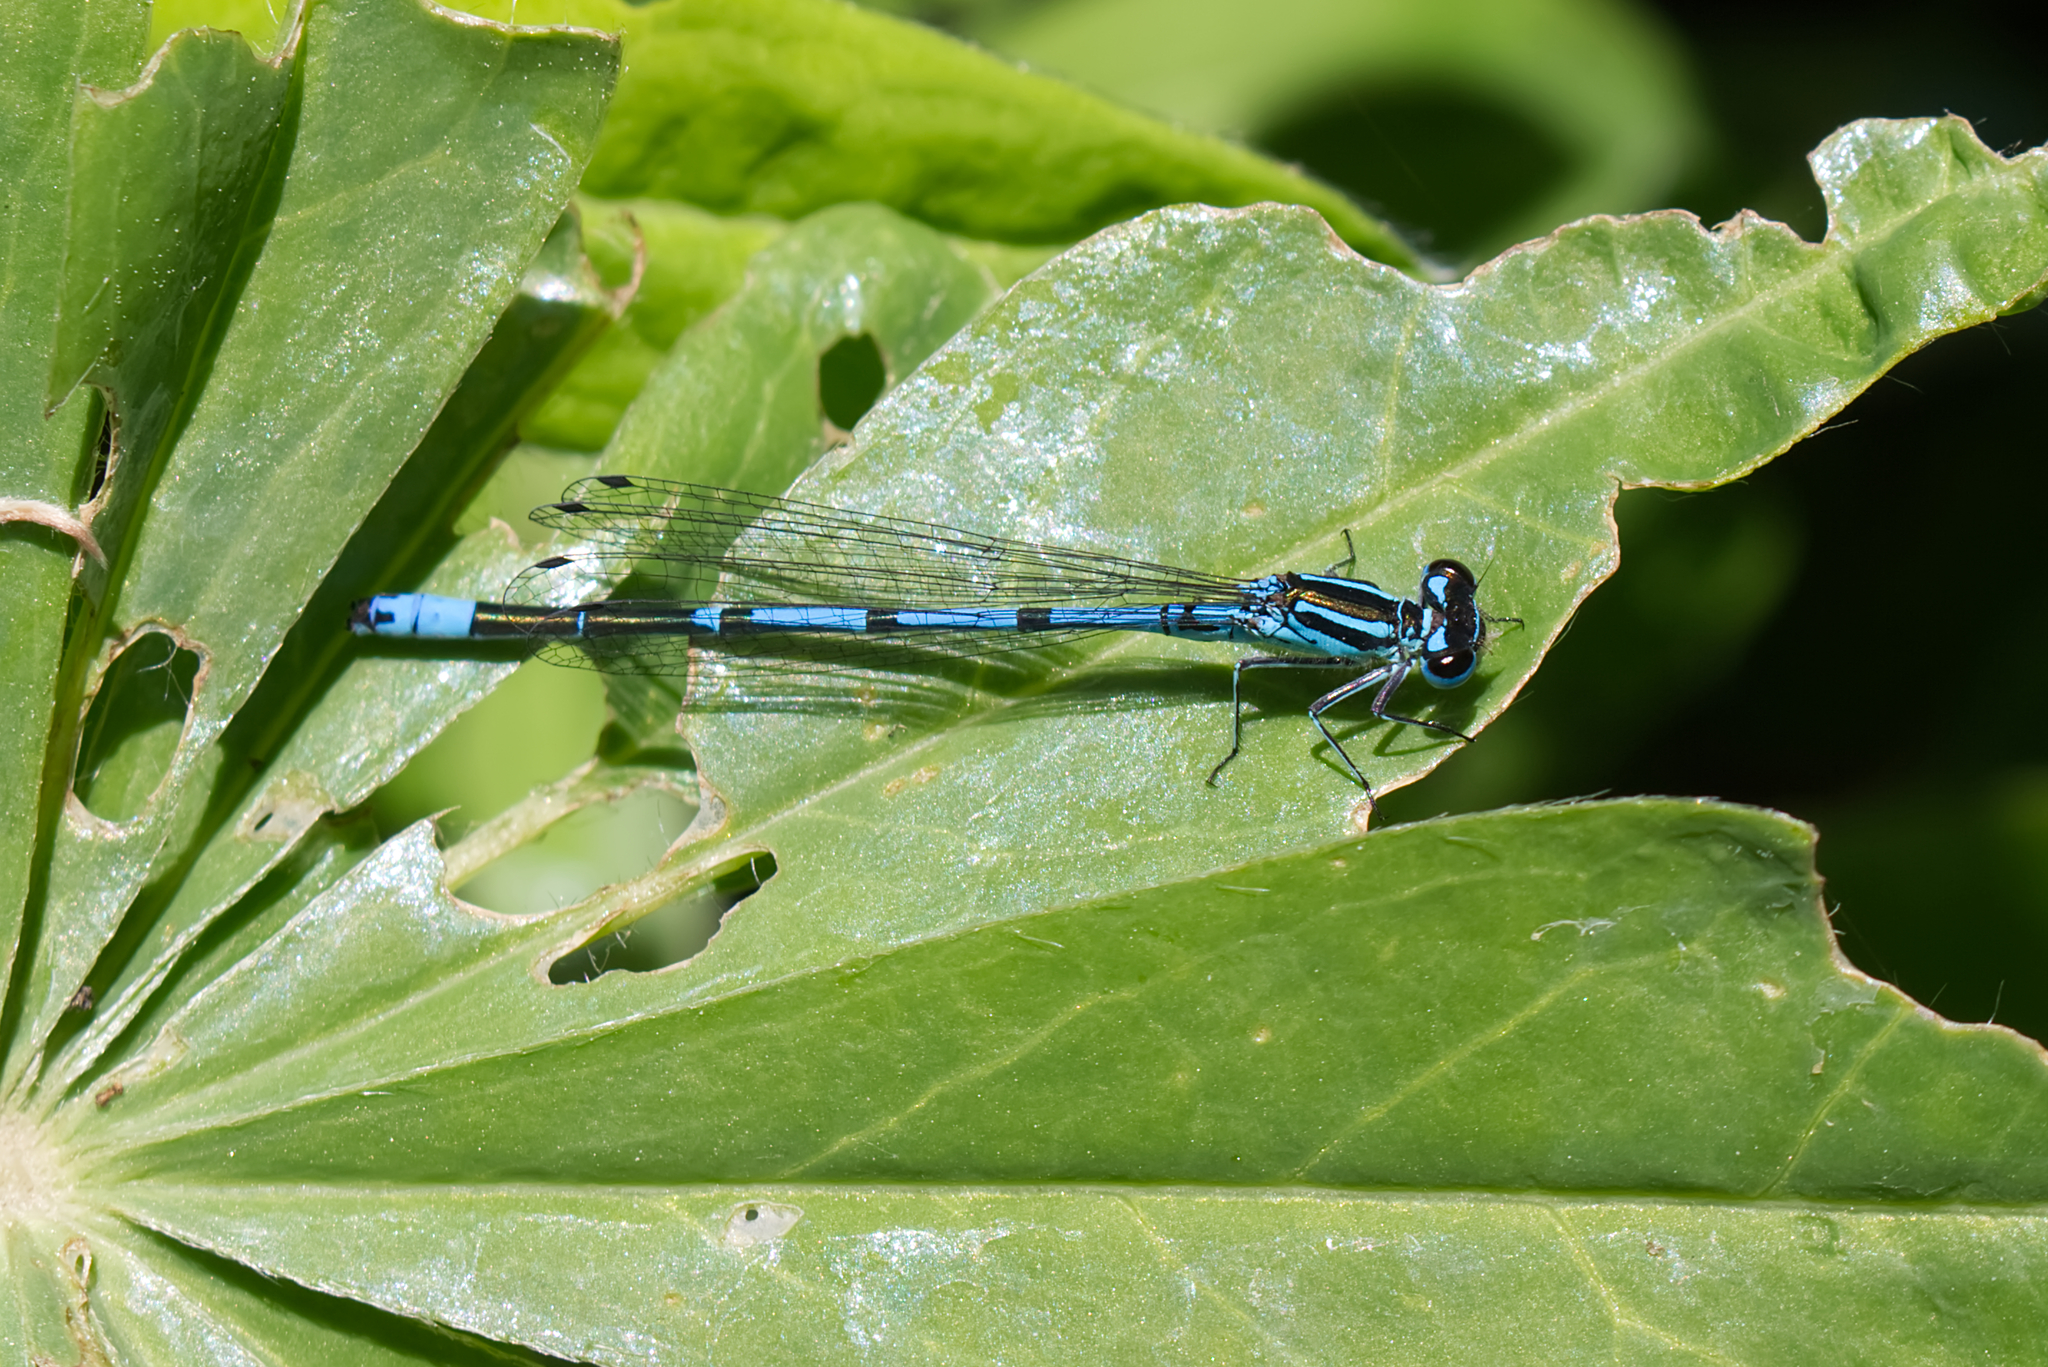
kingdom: Animalia
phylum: Arthropoda
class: Insecta
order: Odonata
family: Coenagrionidae
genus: Coenagrion
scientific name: Coenagrion puella
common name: Azure damselfly
